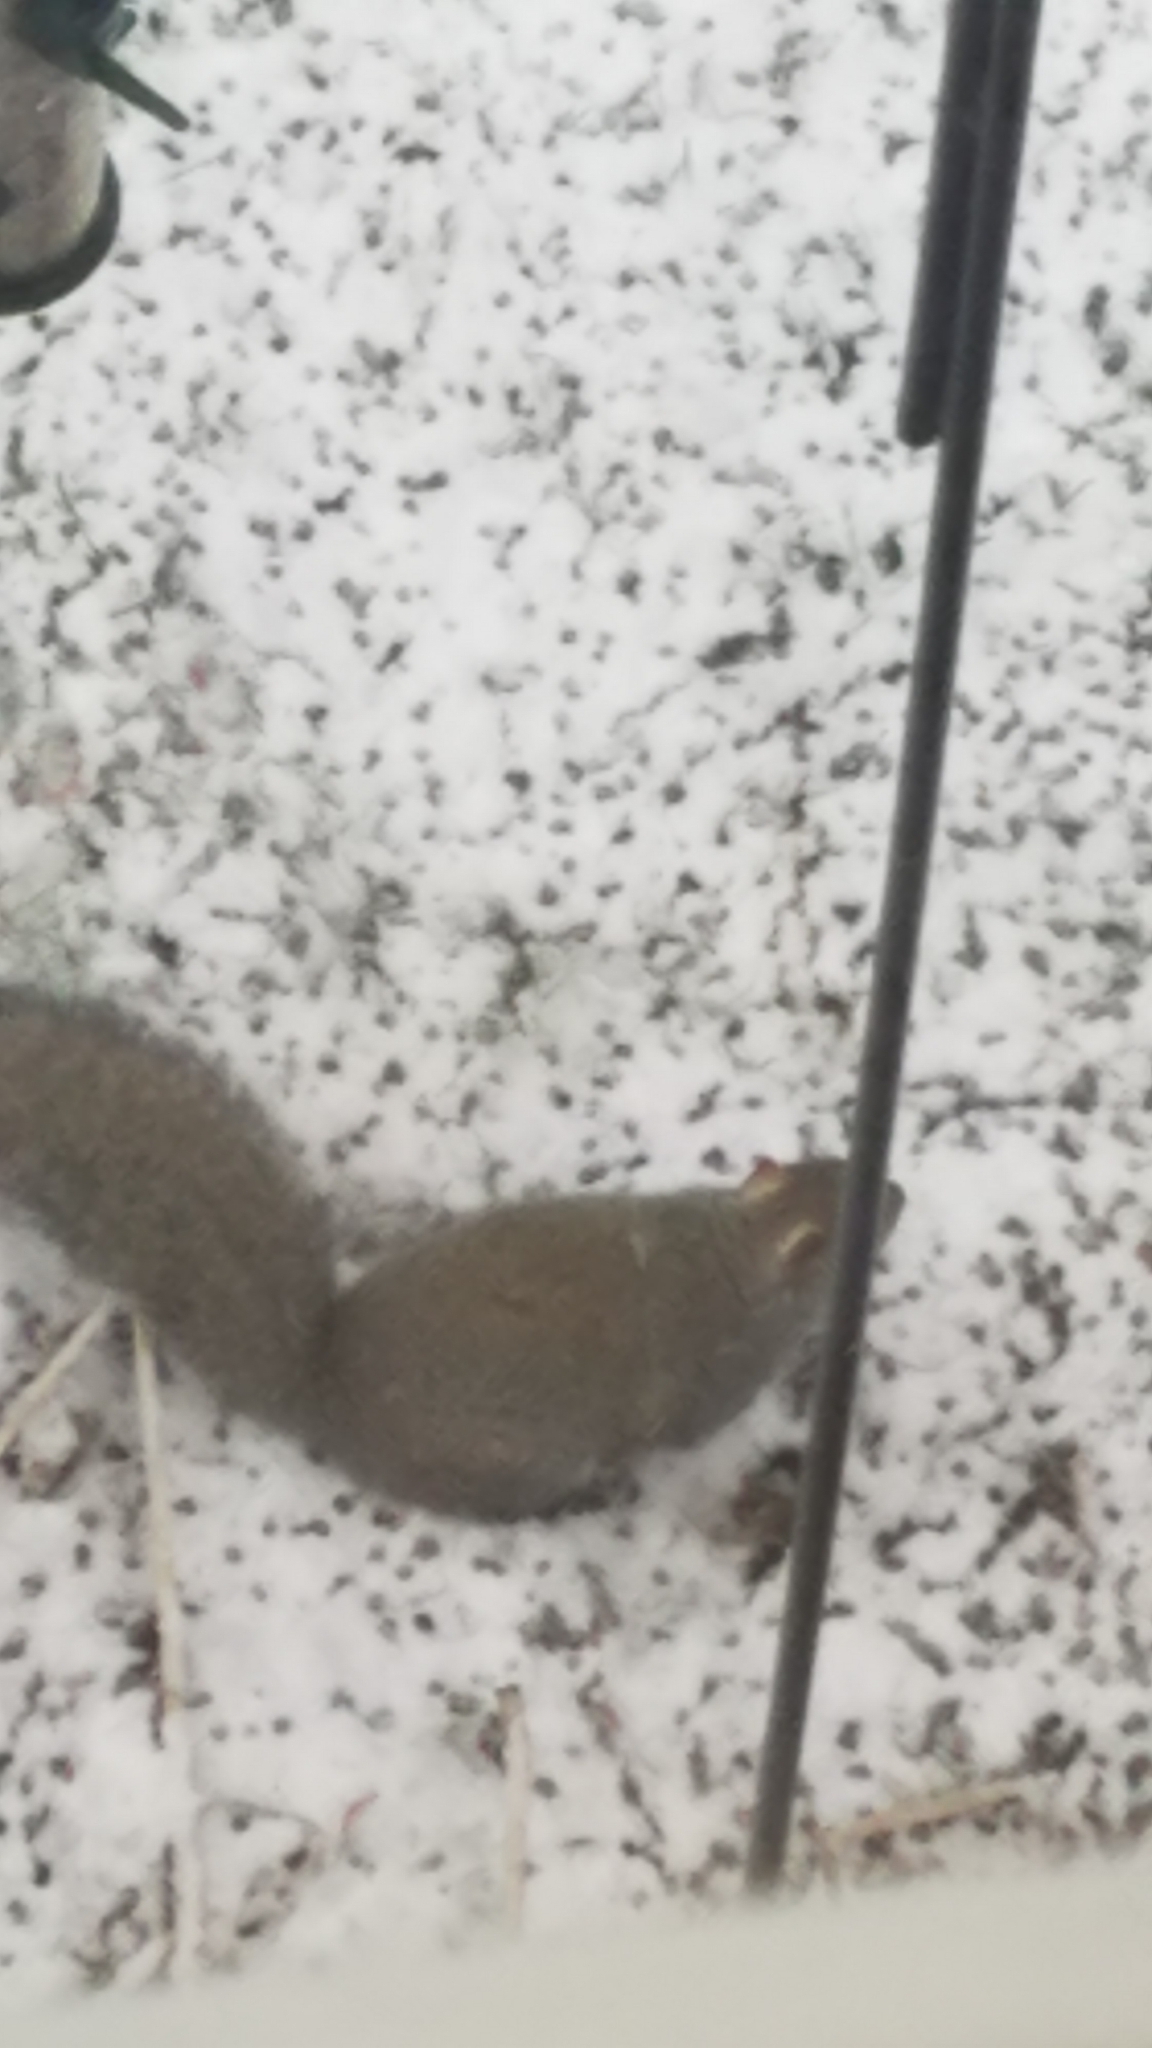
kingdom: Animalia
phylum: Chordata
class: Mammalia
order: Rodentia
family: Sciuridae
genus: Sciurus
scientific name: Sciurus carolinensis
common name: Eastern gray squirrel
